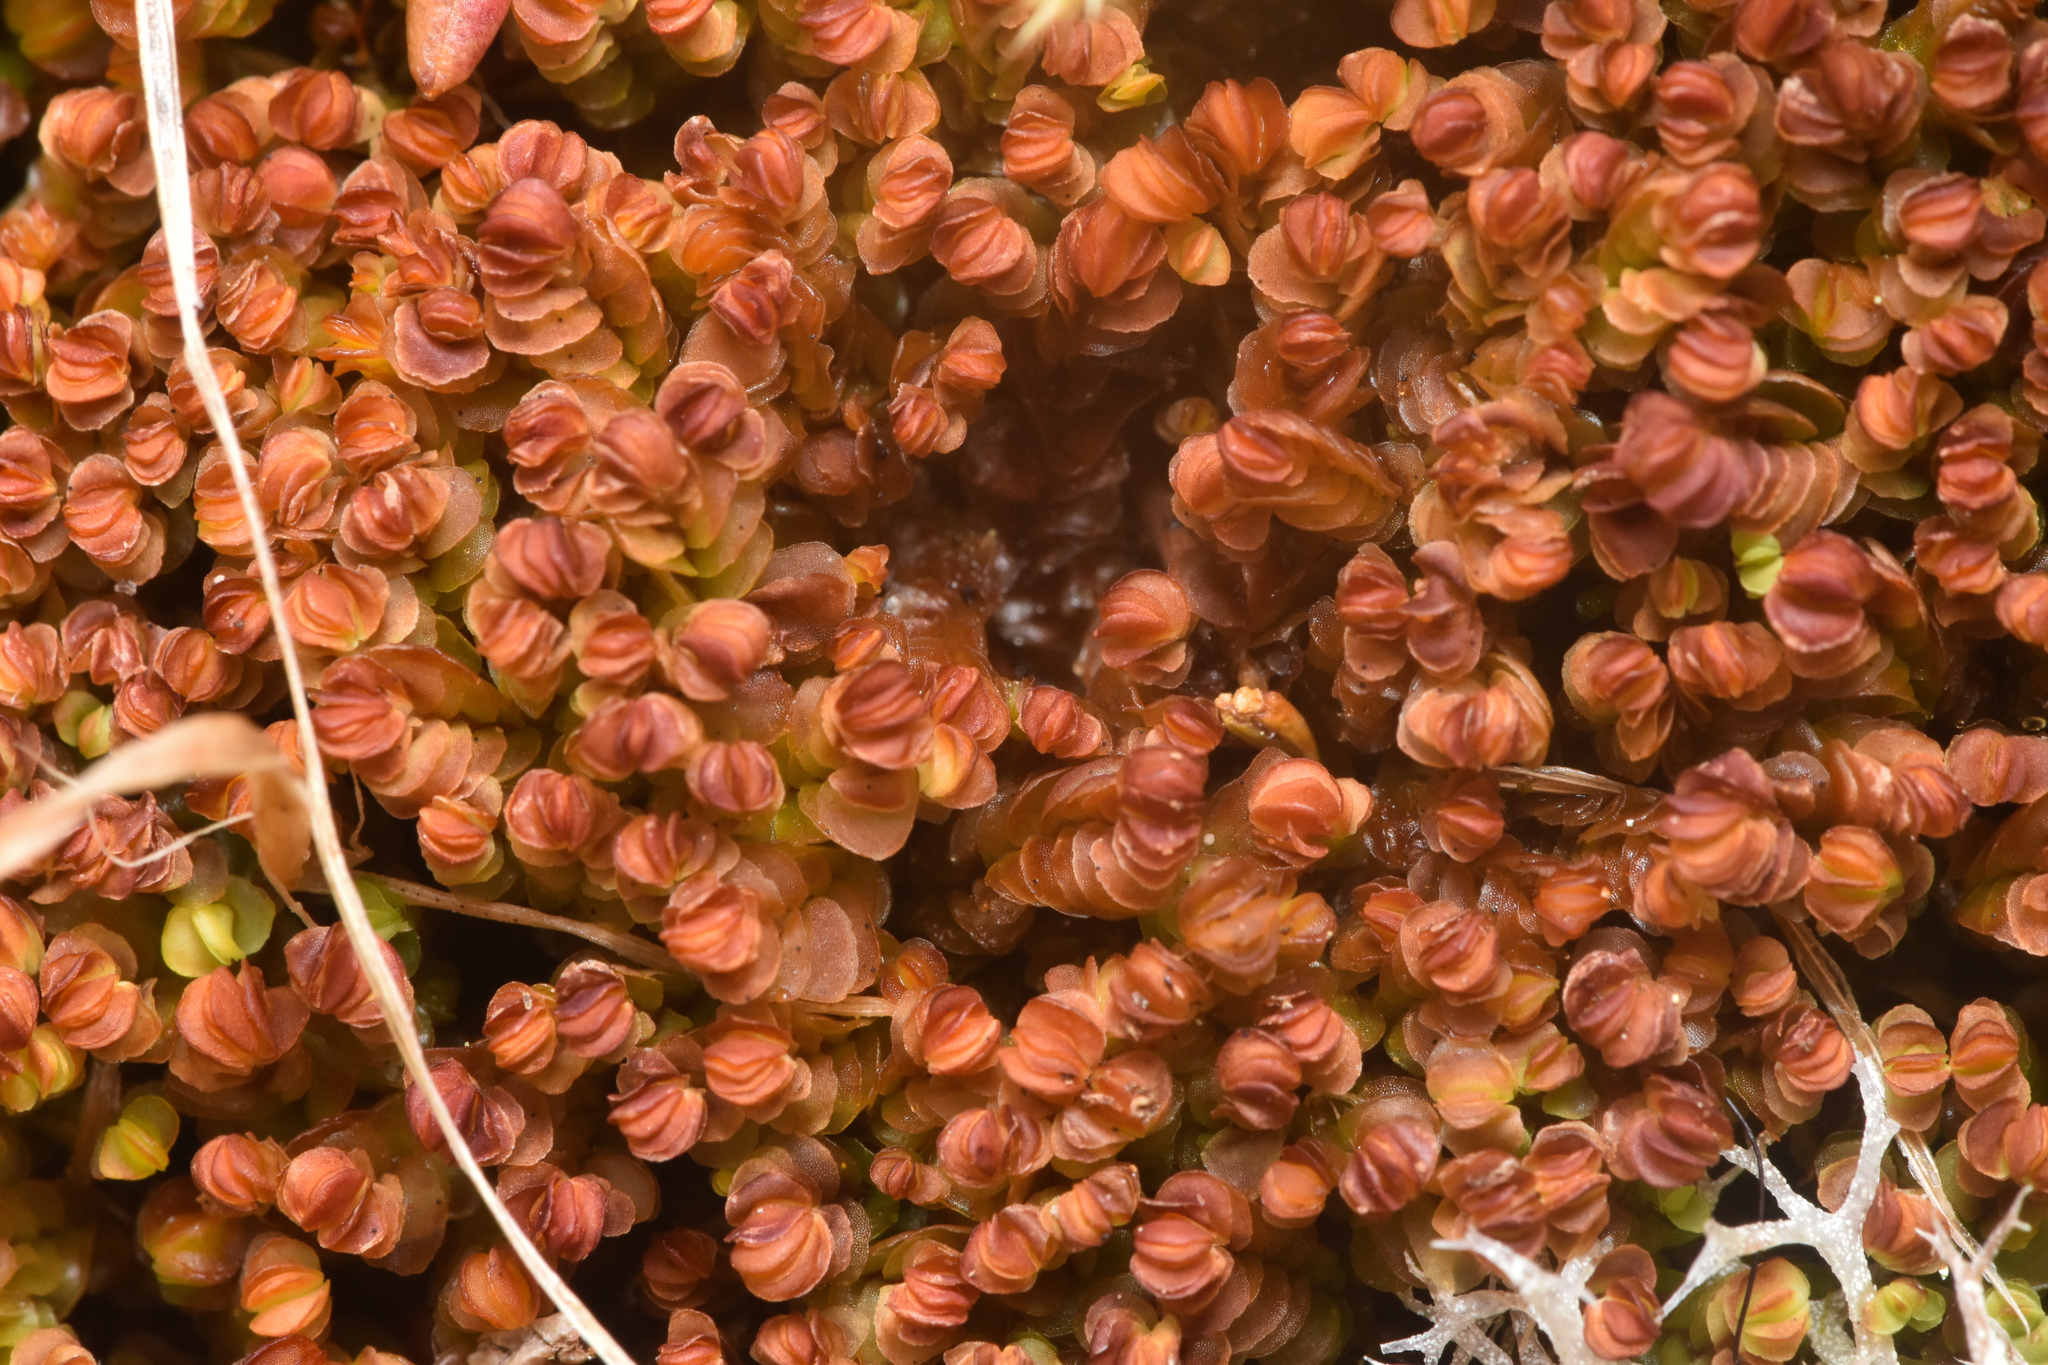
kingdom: Plantae
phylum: Marchantiophyta
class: Jungermanniopsida
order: Jungermanniales
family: Myliaceae
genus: Mylia
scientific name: Mylia taylorii
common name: Taylor s flapwort
